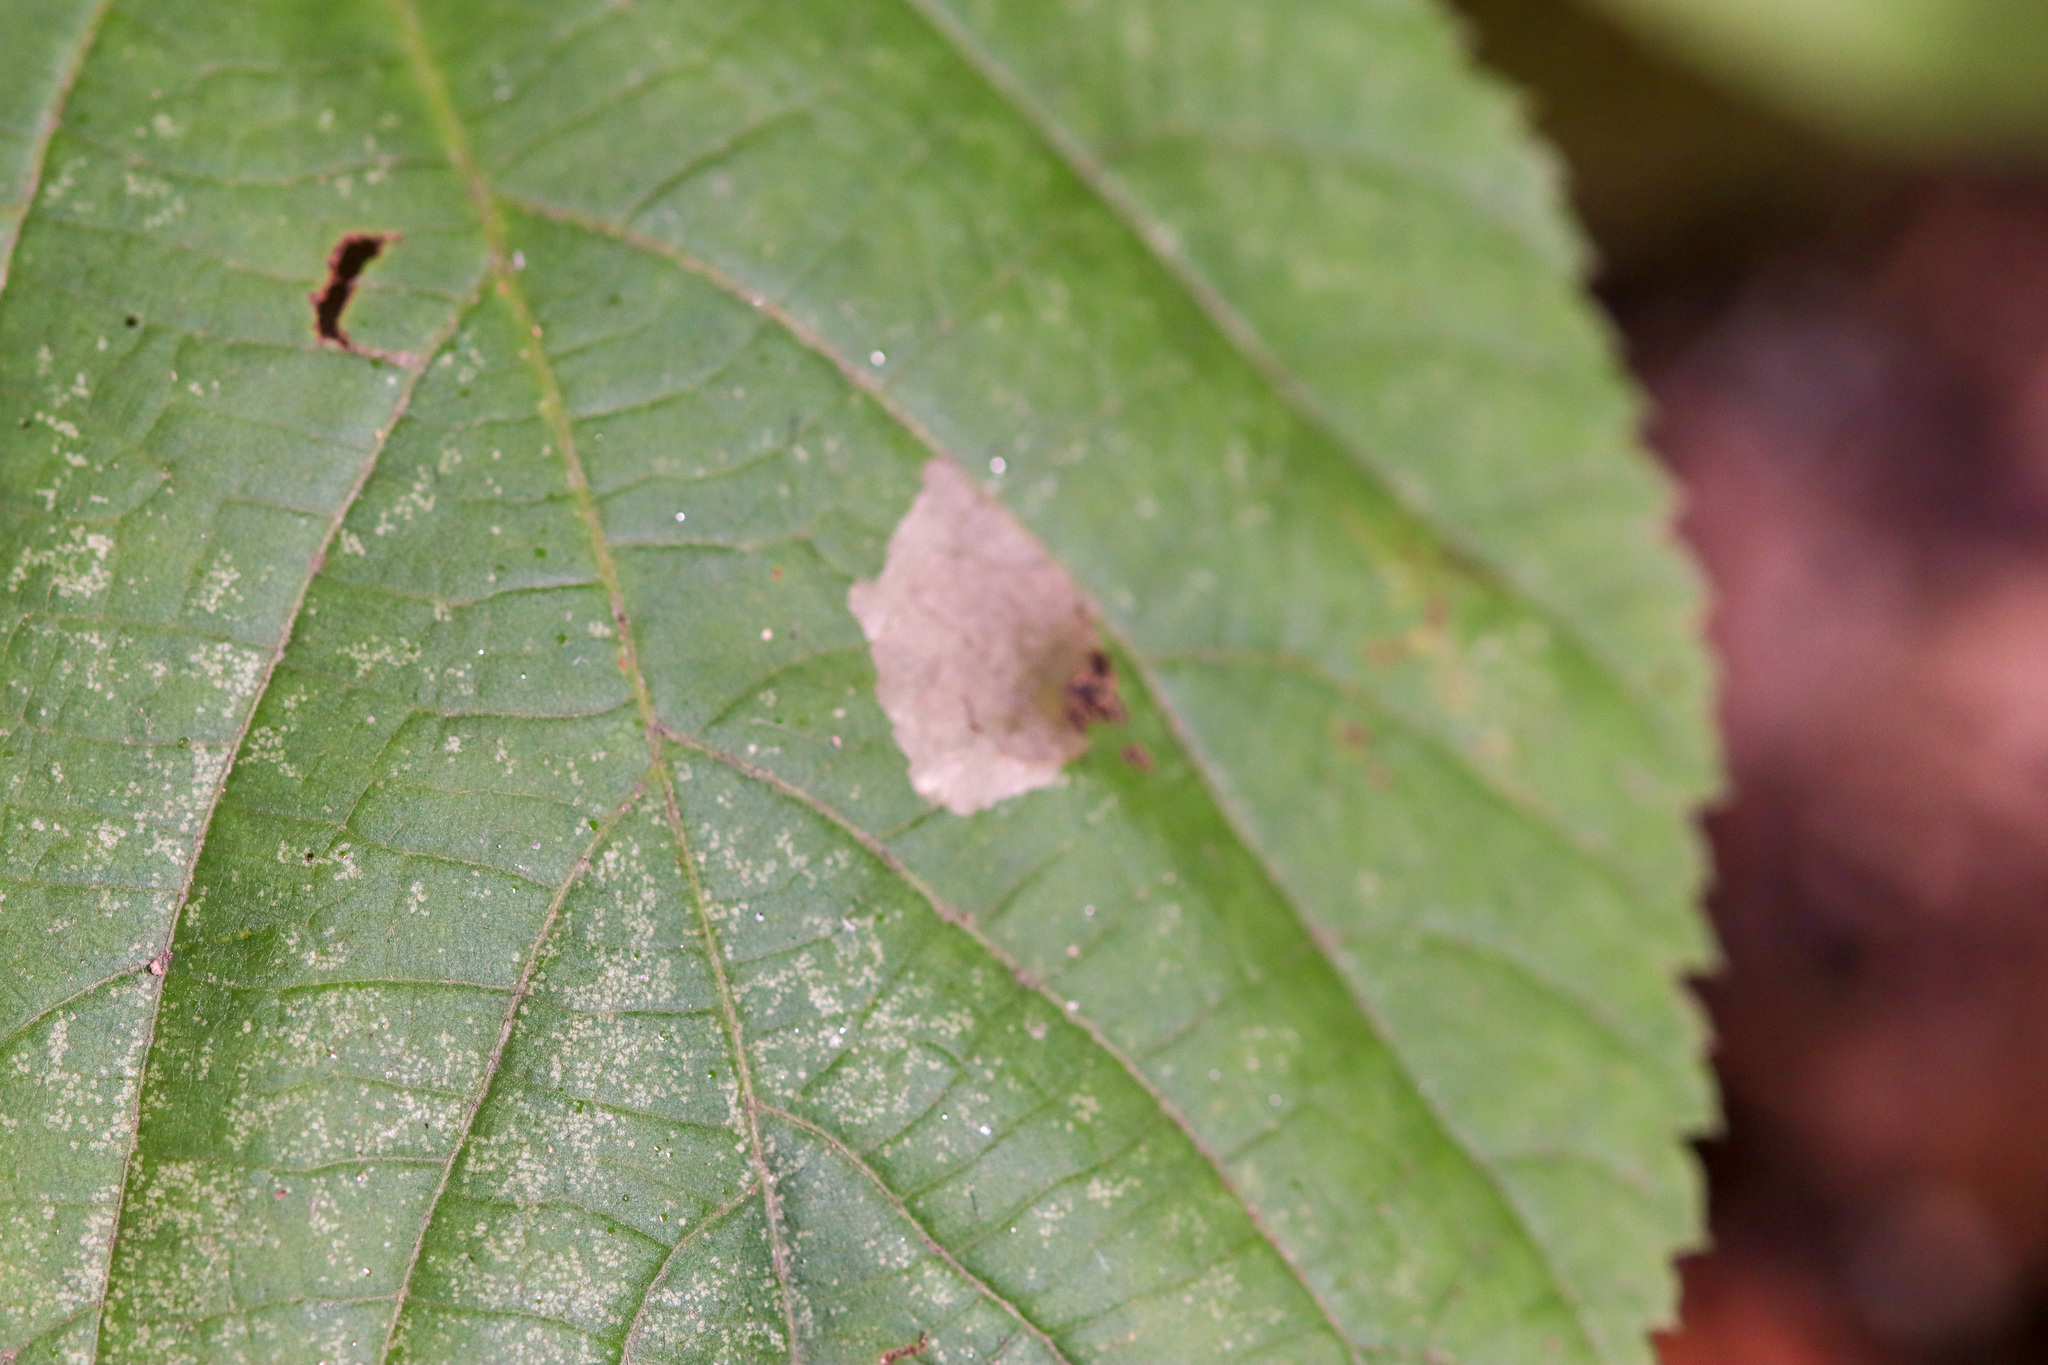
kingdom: Animalia
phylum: Arthropoda
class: Insecta
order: Coleoptera
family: Chrysomelidae
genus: Baliosus
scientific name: Baliosus nervosus
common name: Basswood leaf miner
